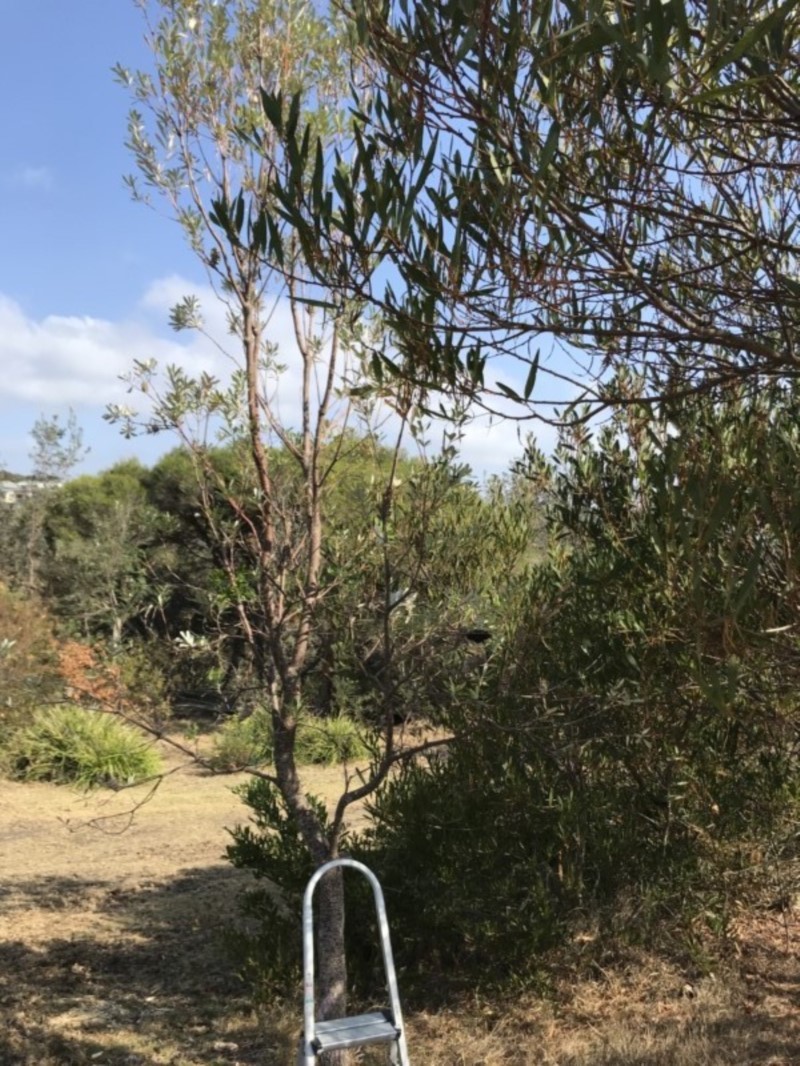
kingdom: Plantae
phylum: Tracheophyta
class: Magnoliopsida
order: Proteales
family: Proteaceae
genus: Banksia
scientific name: Banksia integrifolia
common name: White-honeysuckle
